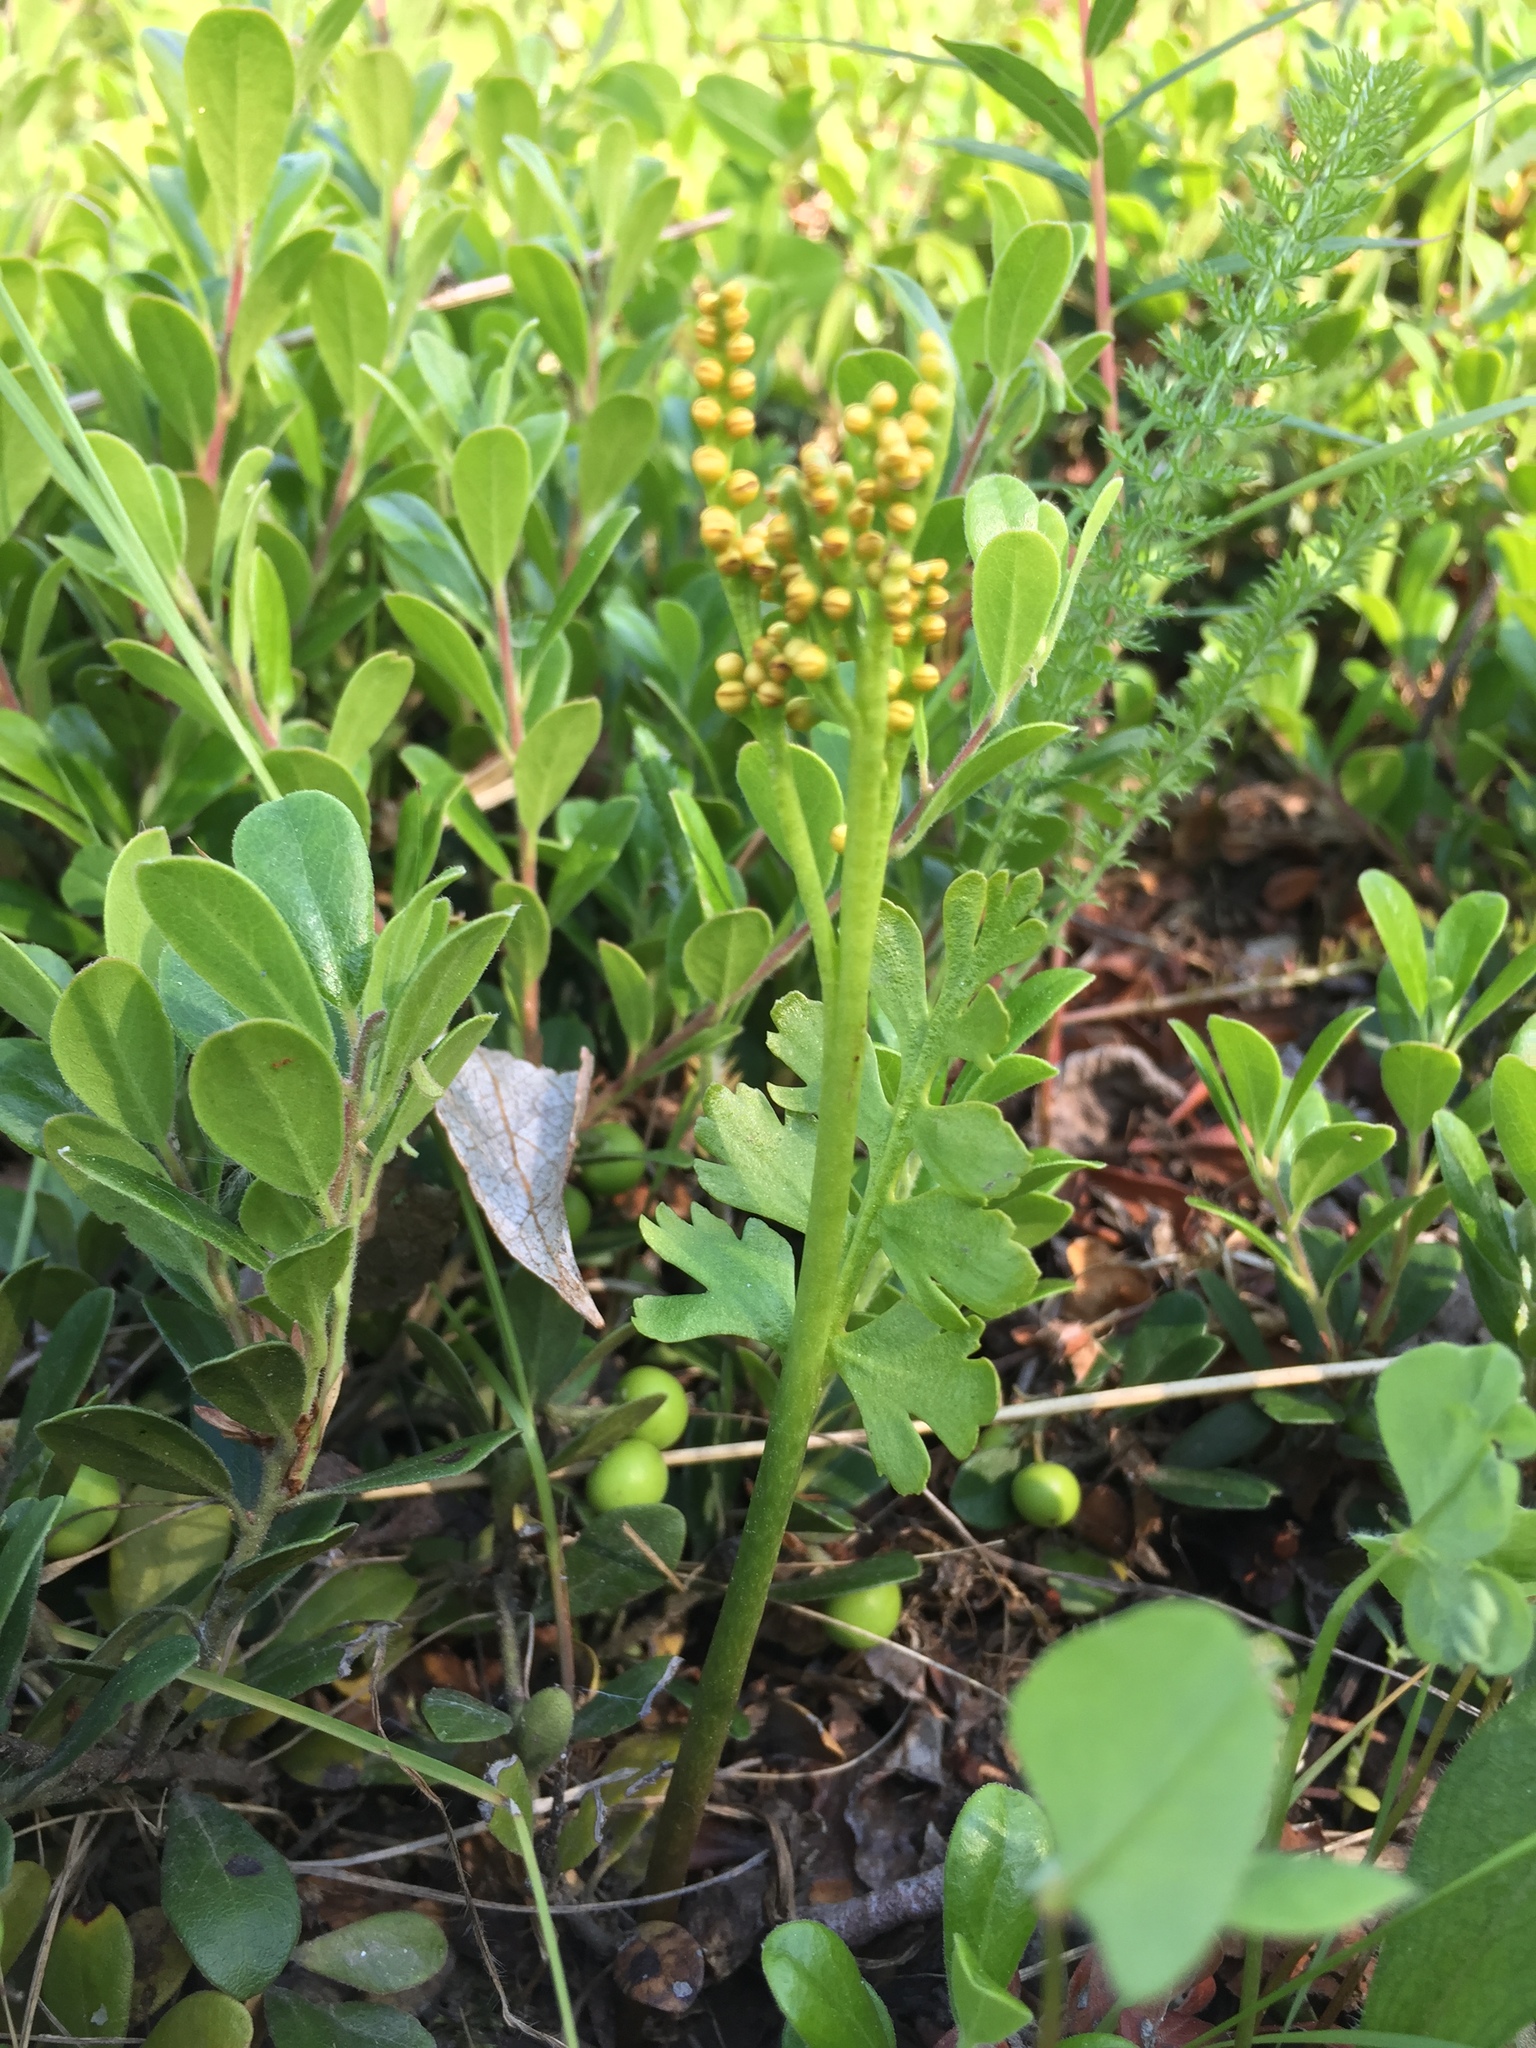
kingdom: Plantae
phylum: Tracheophyta
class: Polypodiopsida
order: Ophioglossales
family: Ophioglossaceae
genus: Botrychium
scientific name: Botrychium alaskense
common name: Alaska moonwort
